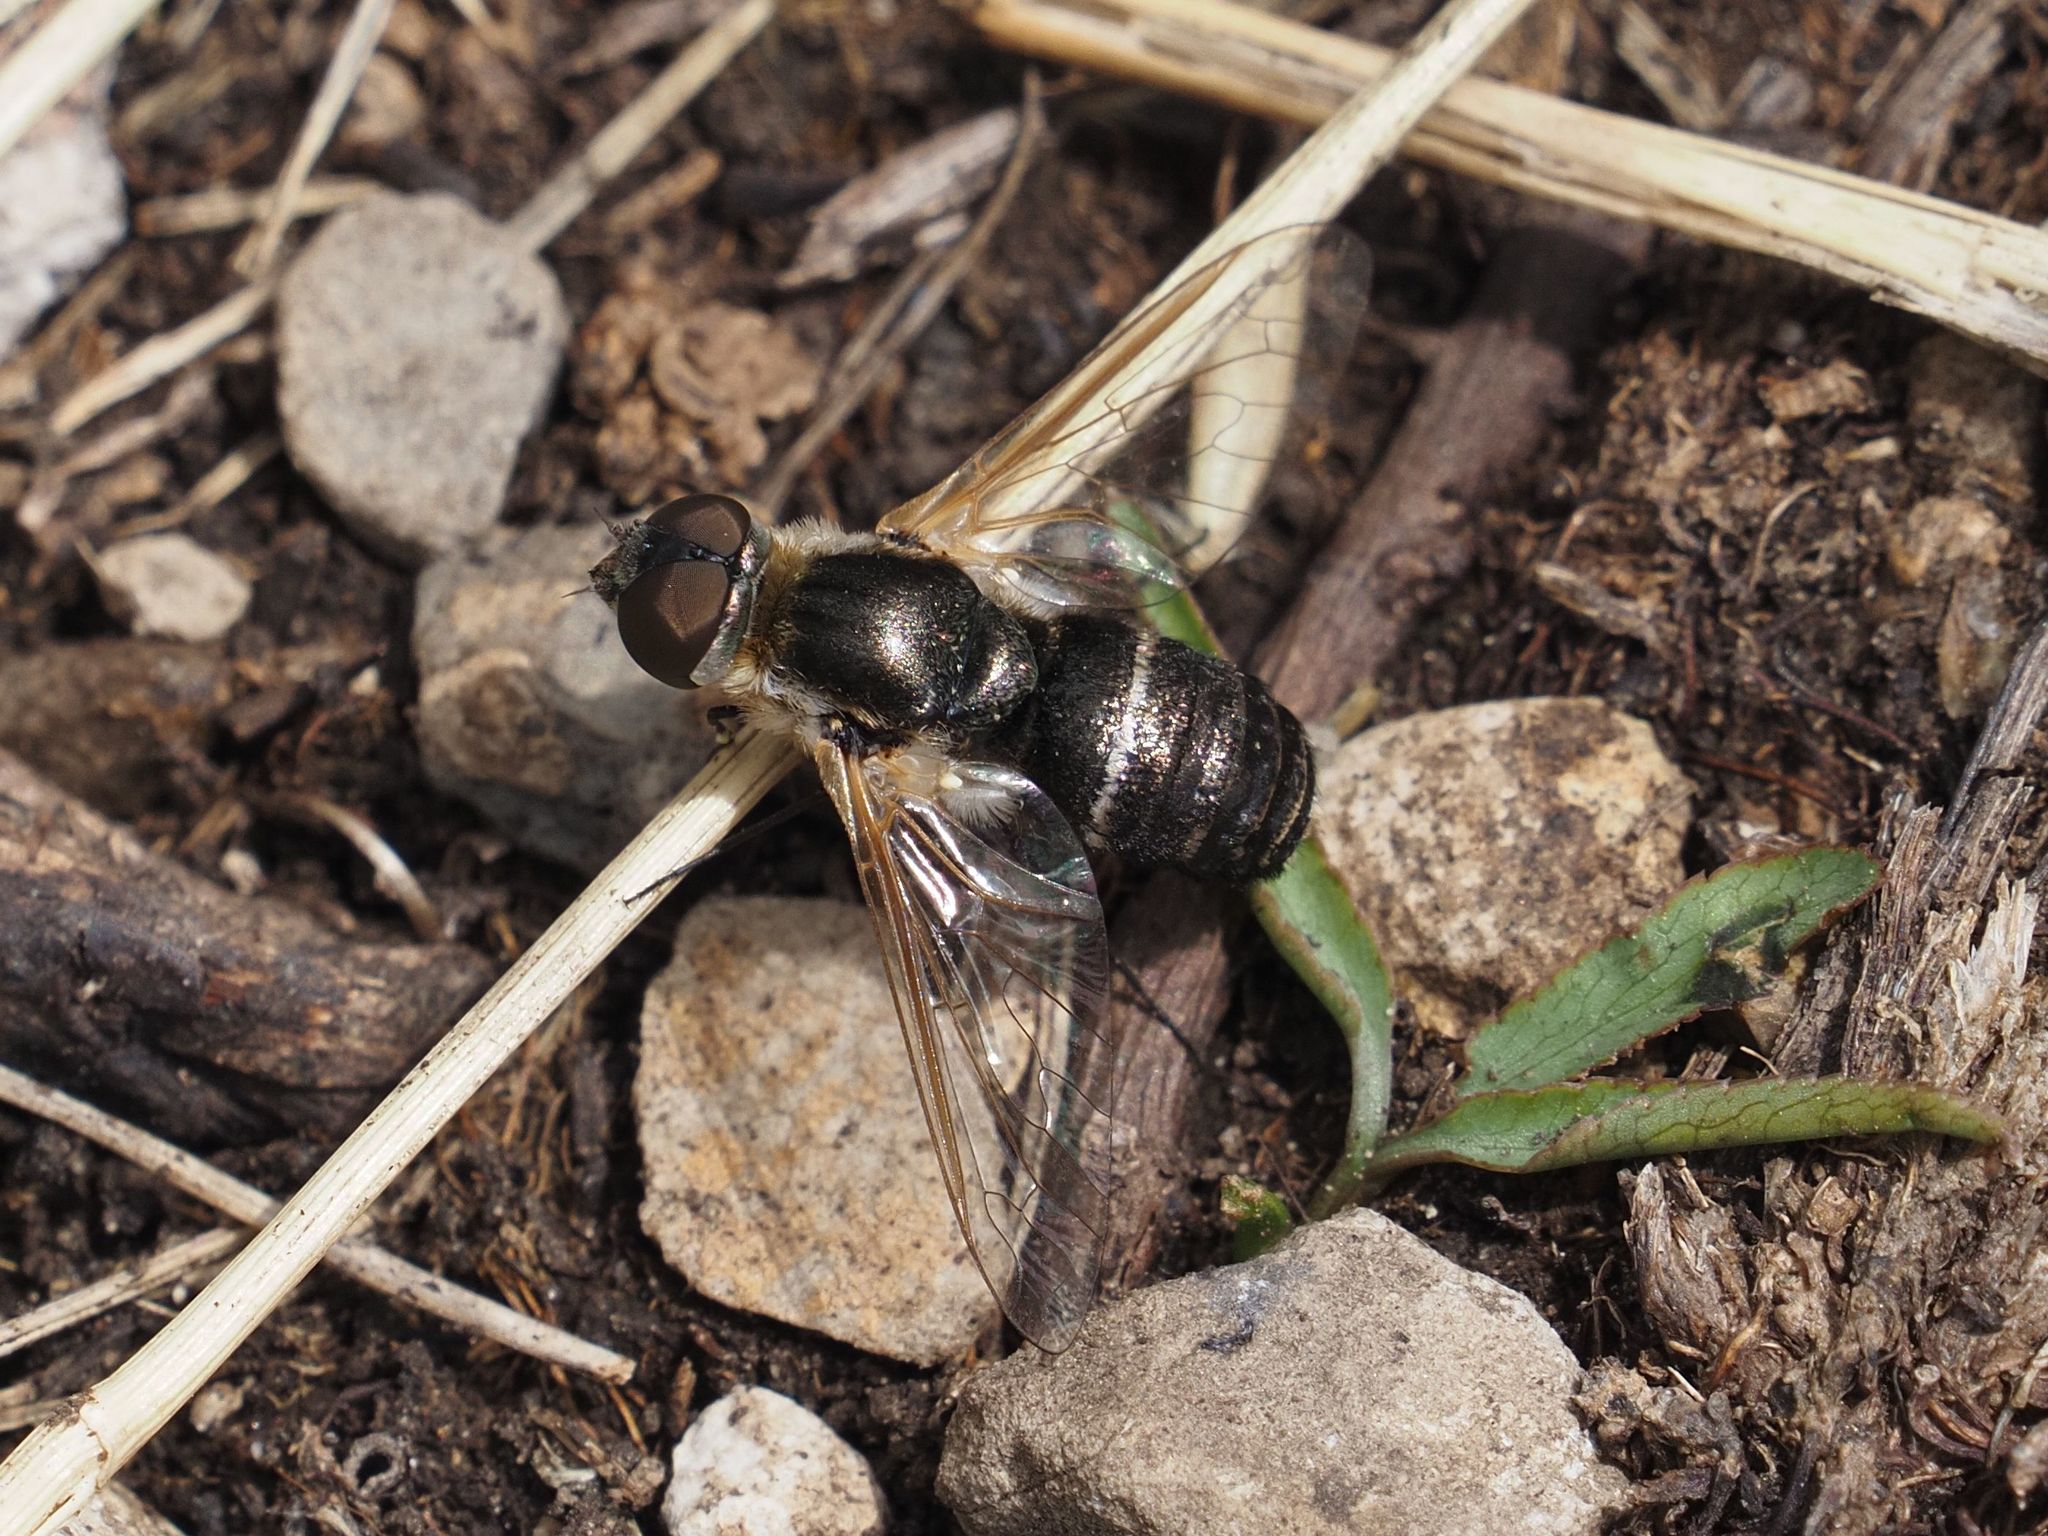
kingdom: Animalia
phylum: Arthropoda
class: Insecta
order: Diptera
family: Bombyliidae
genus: Micomitra
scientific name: Micomitra stupida
